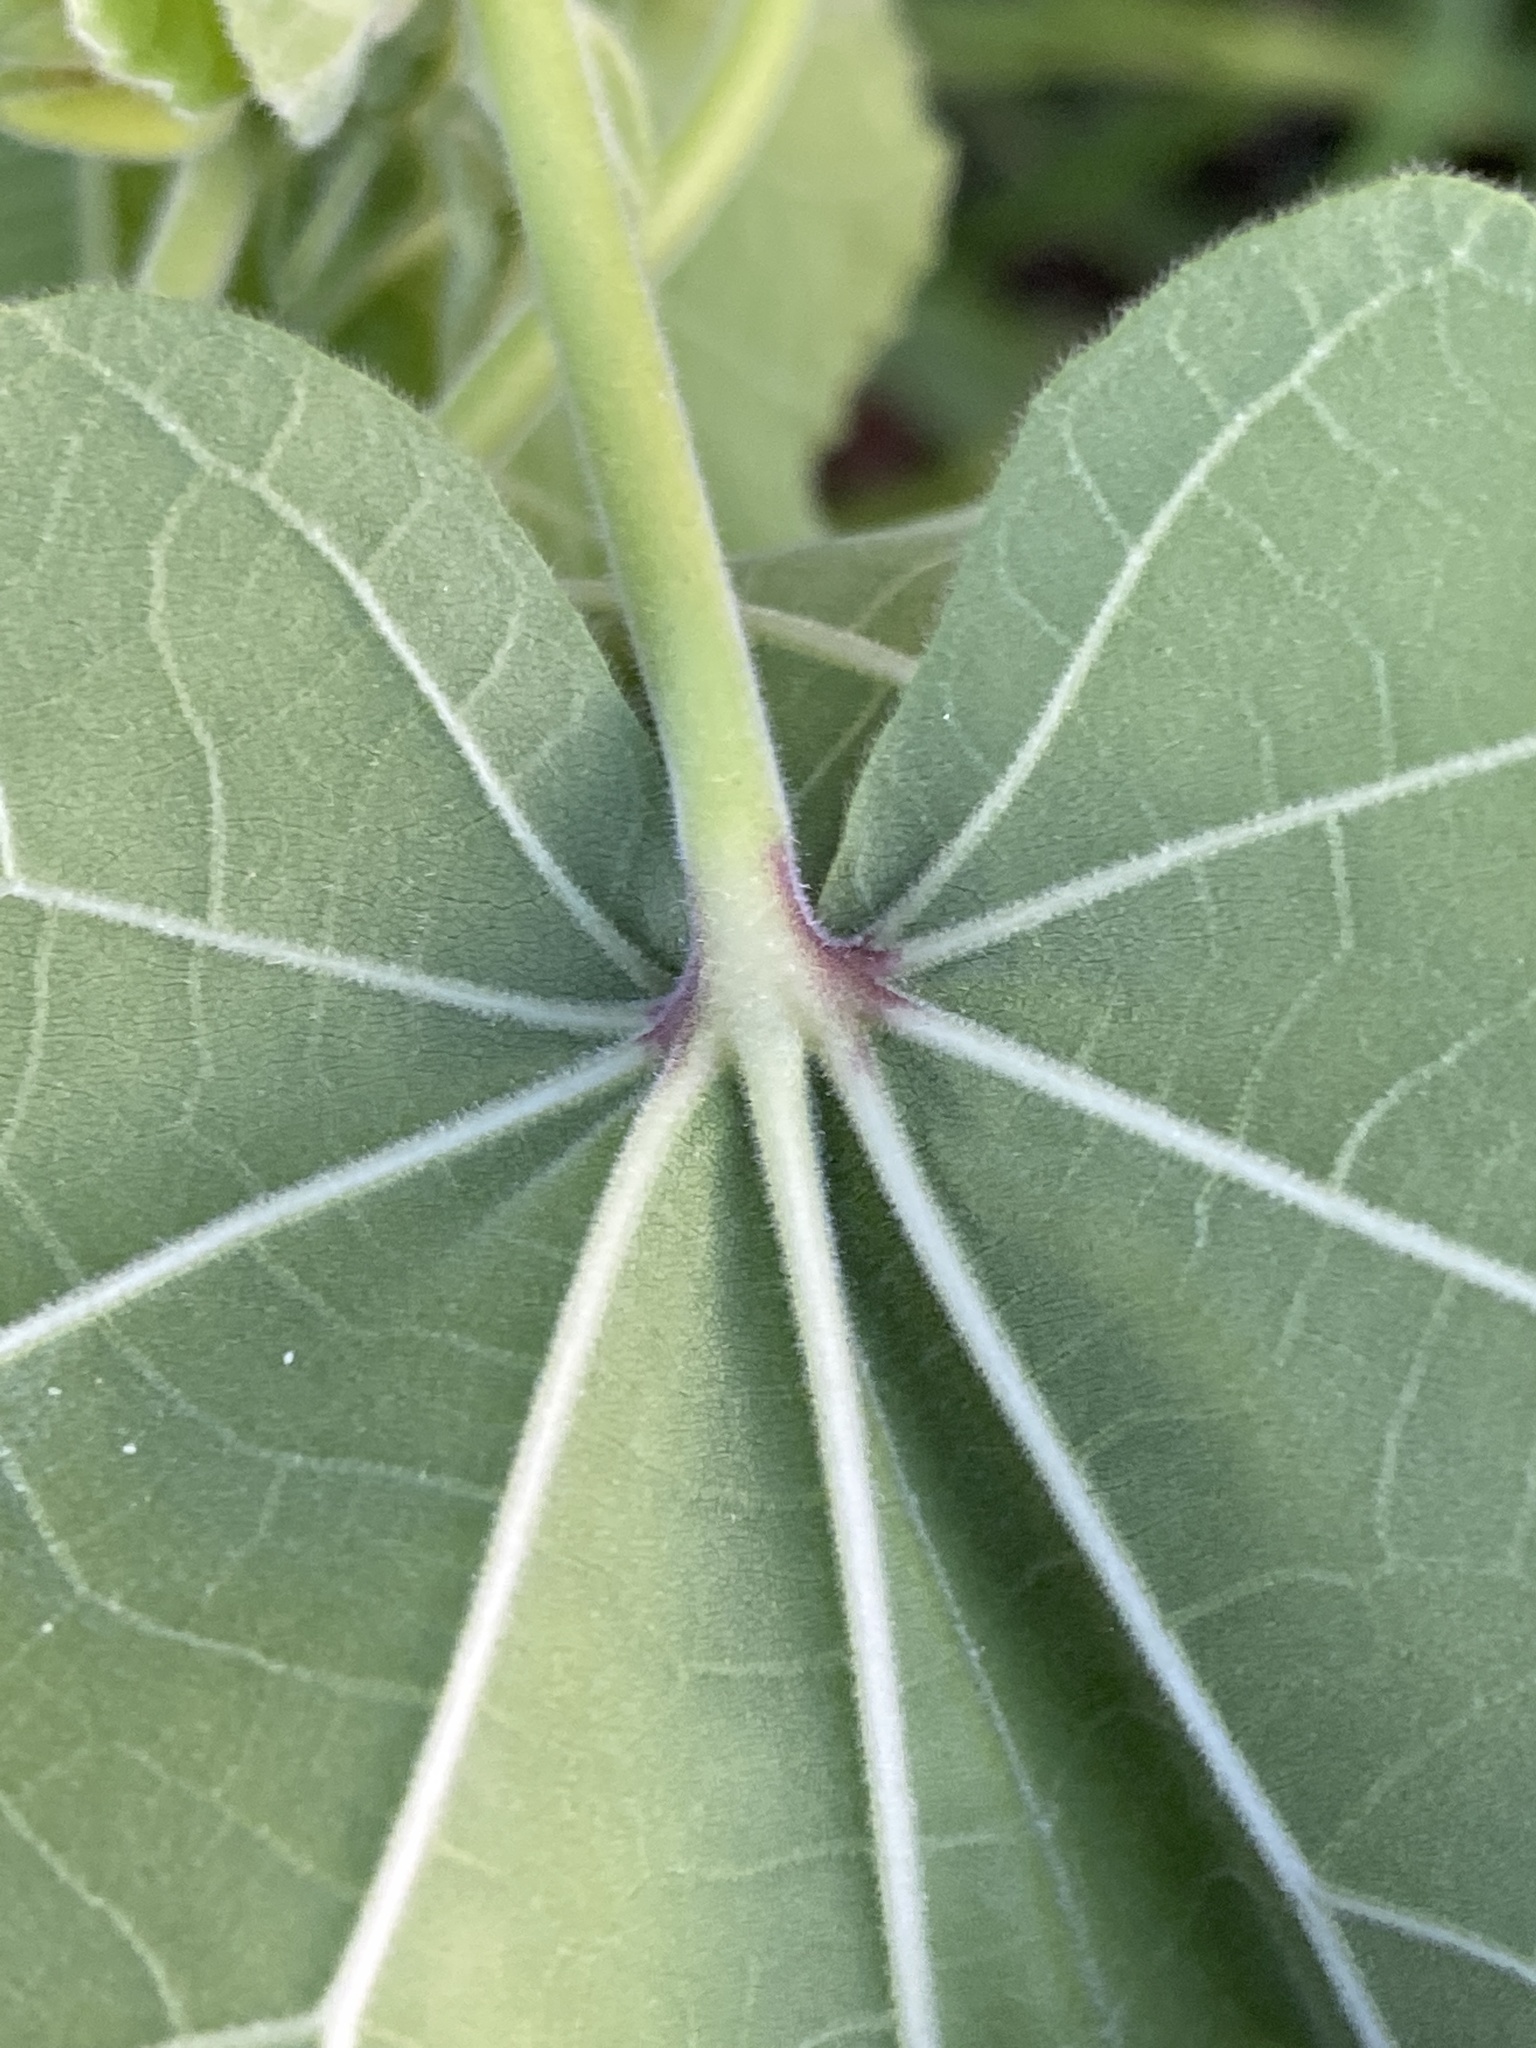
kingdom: Plantae
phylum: Tracheophyta
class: Magnoliopsida
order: Malvales
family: Malvaceae
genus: Abutilon
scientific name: Abutilon theophrasti
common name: Velvetleaf
